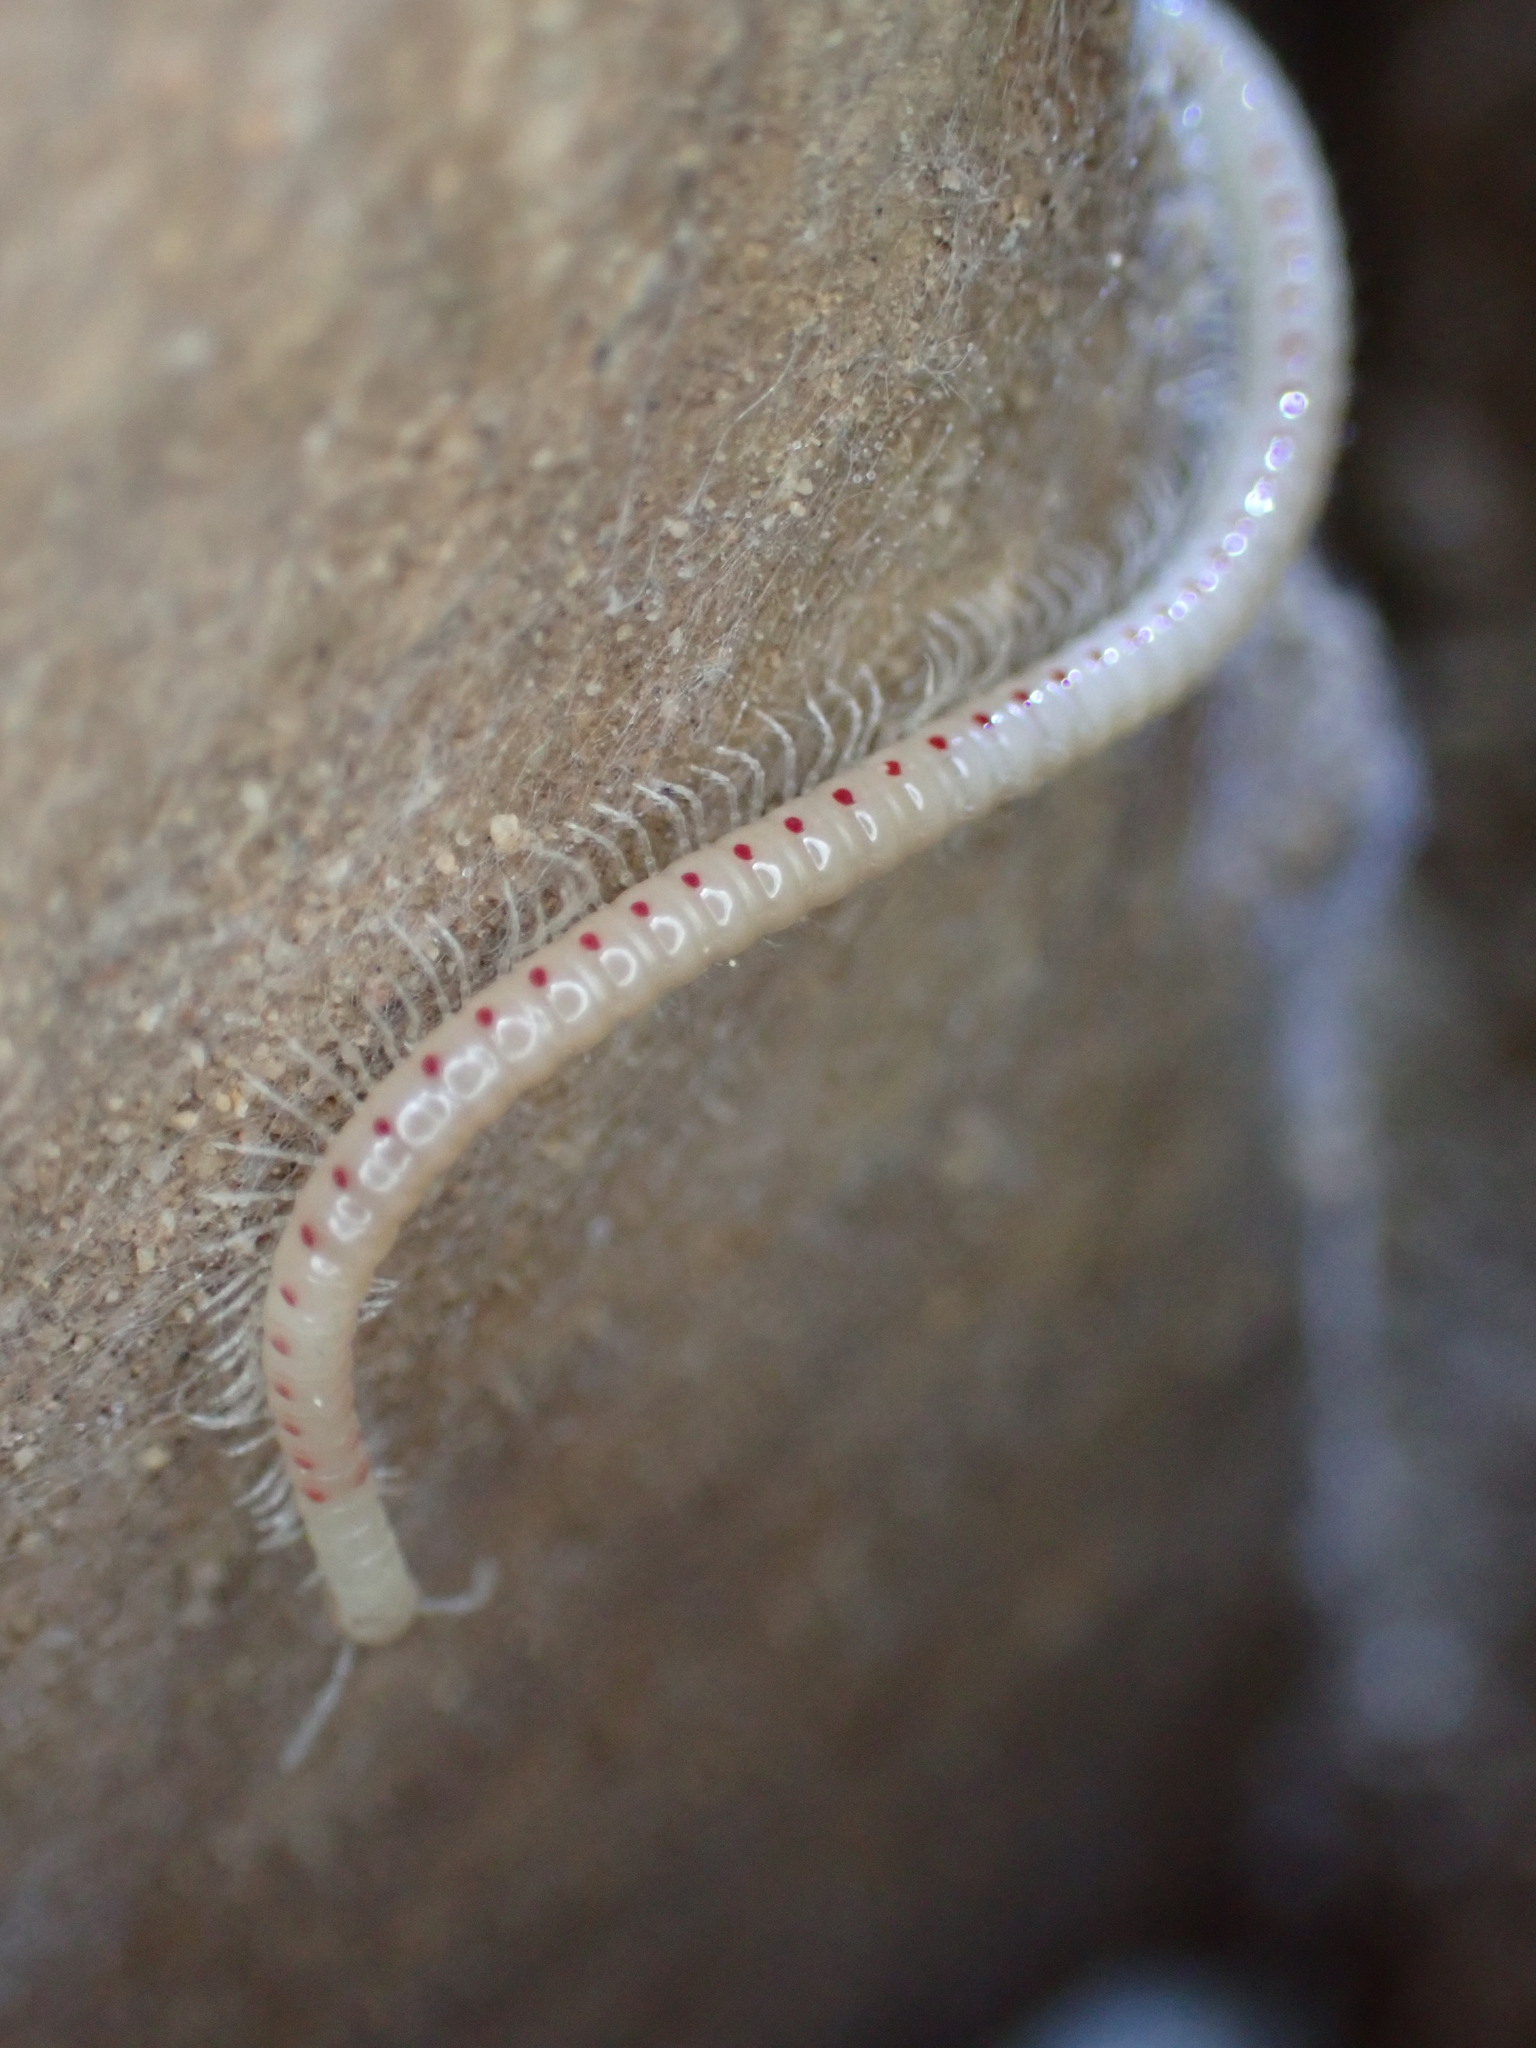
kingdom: Animalia
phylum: Arthropoda
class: Diplopoda
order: Julida
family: Blaniulidae
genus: Blaniulus
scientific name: Blaniulus guttulatus
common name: Spotted snake millipede
